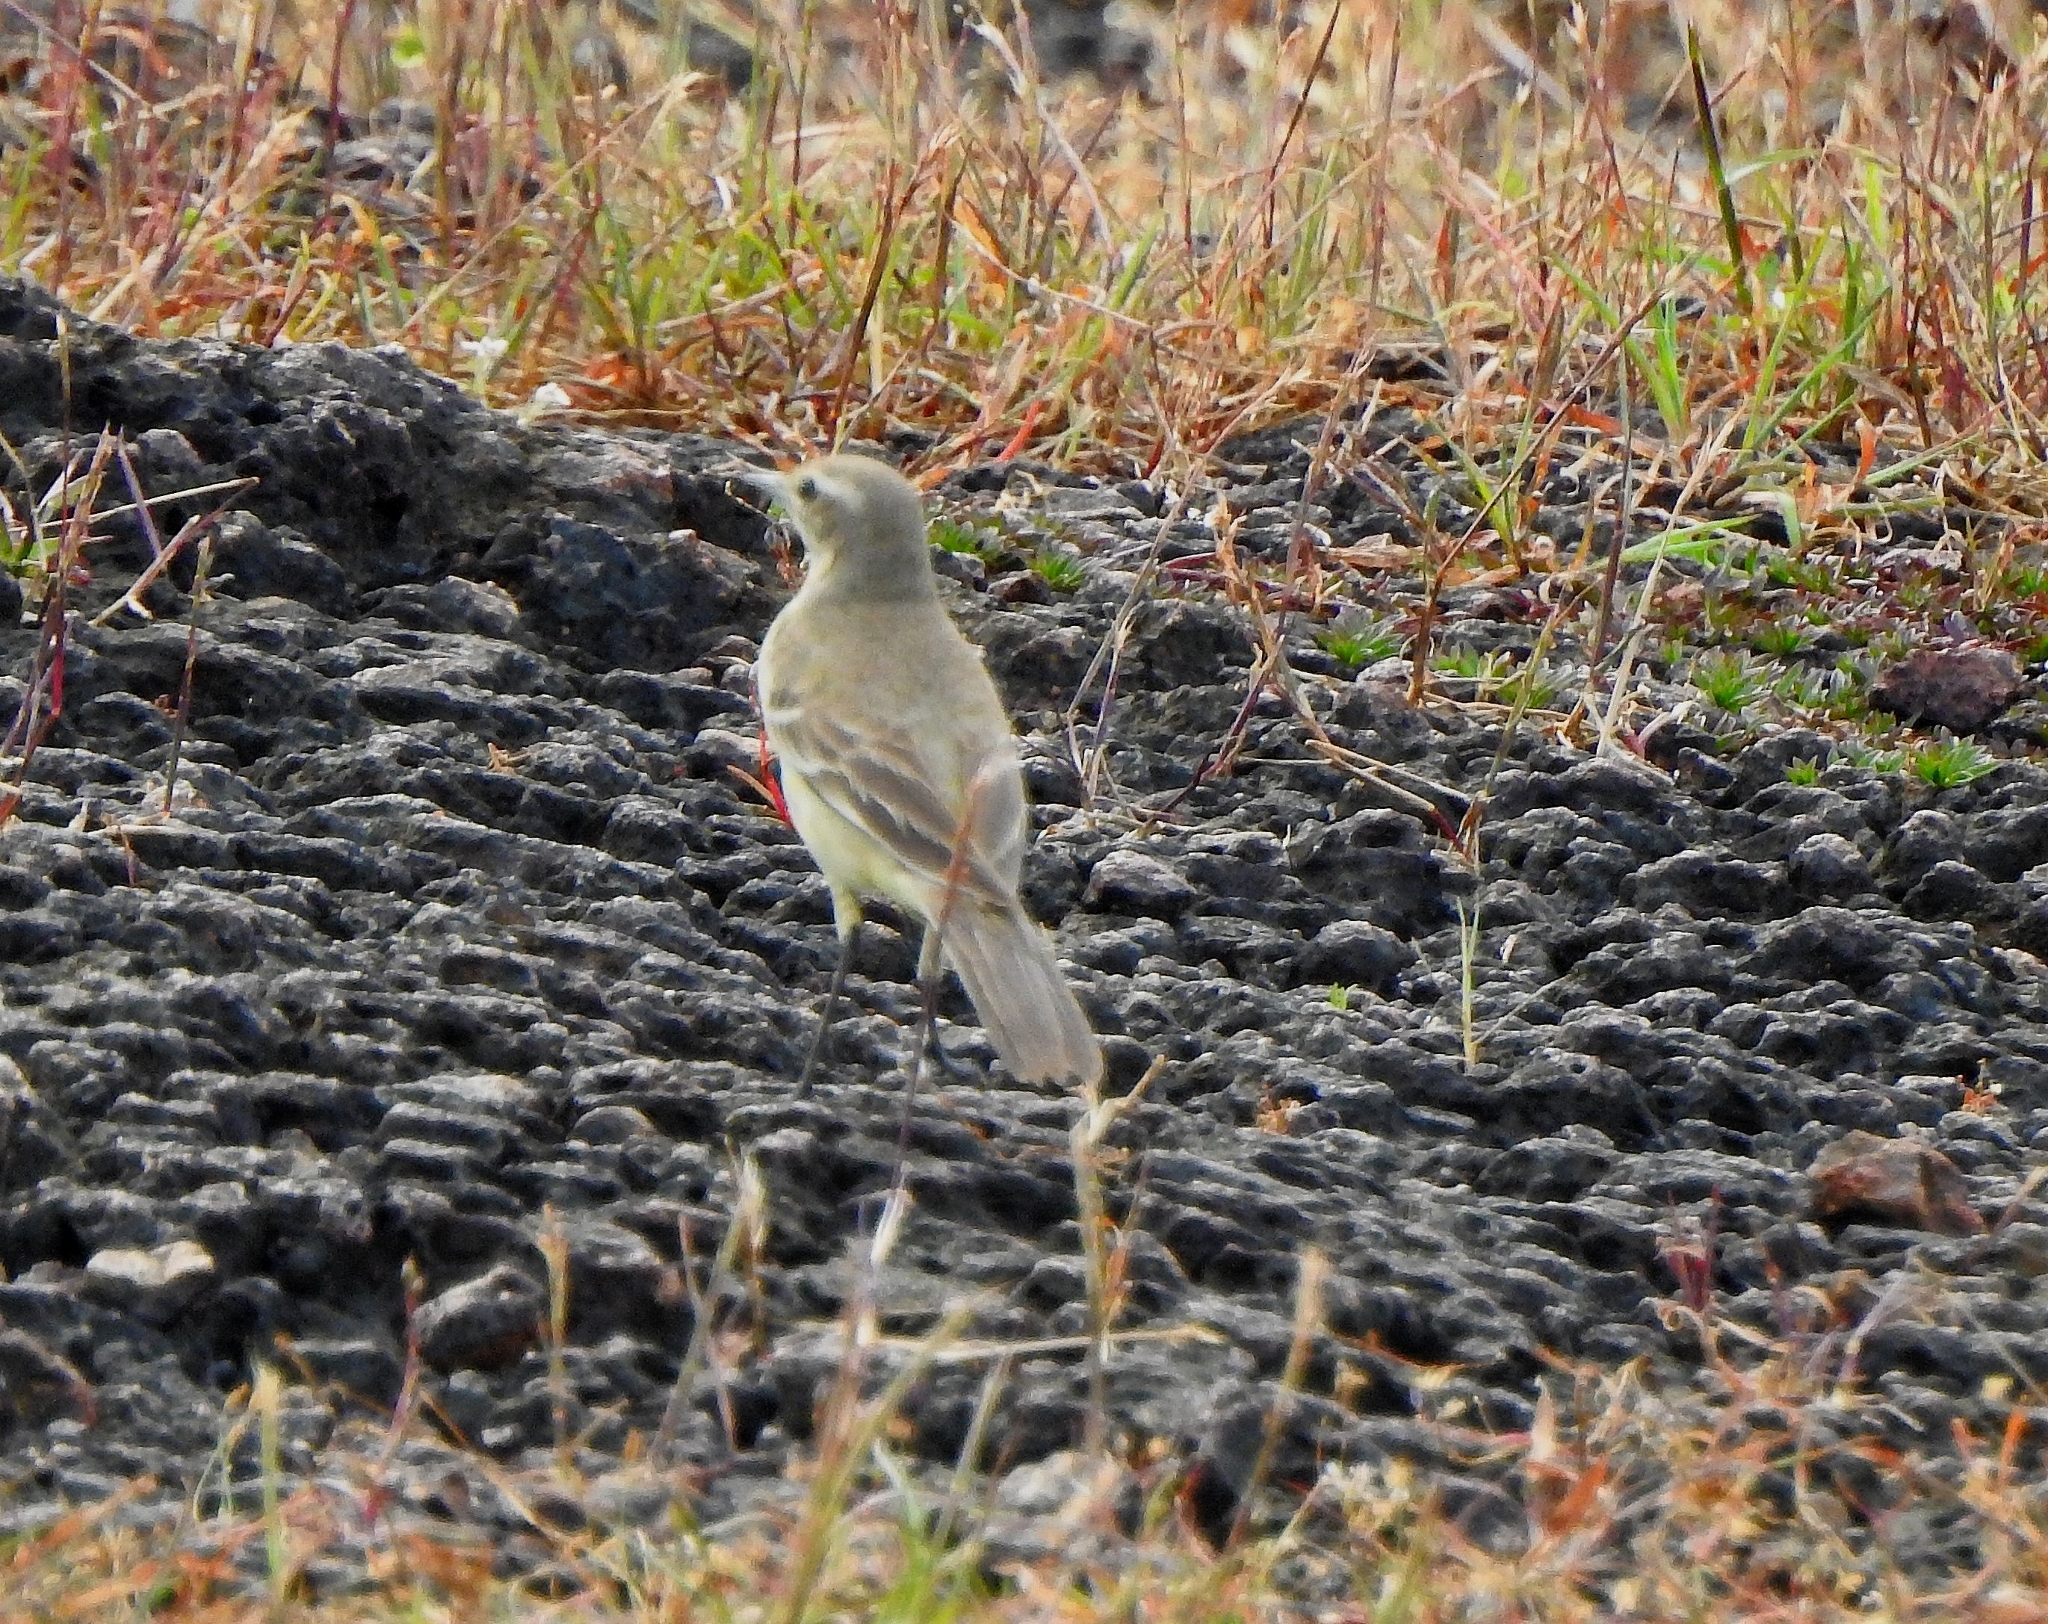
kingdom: Animalia
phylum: Chordata
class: Aves
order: Passeriformes
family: Motacillidae
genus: Motacilla
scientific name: Motacilla flava
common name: Western yellow wagtail
